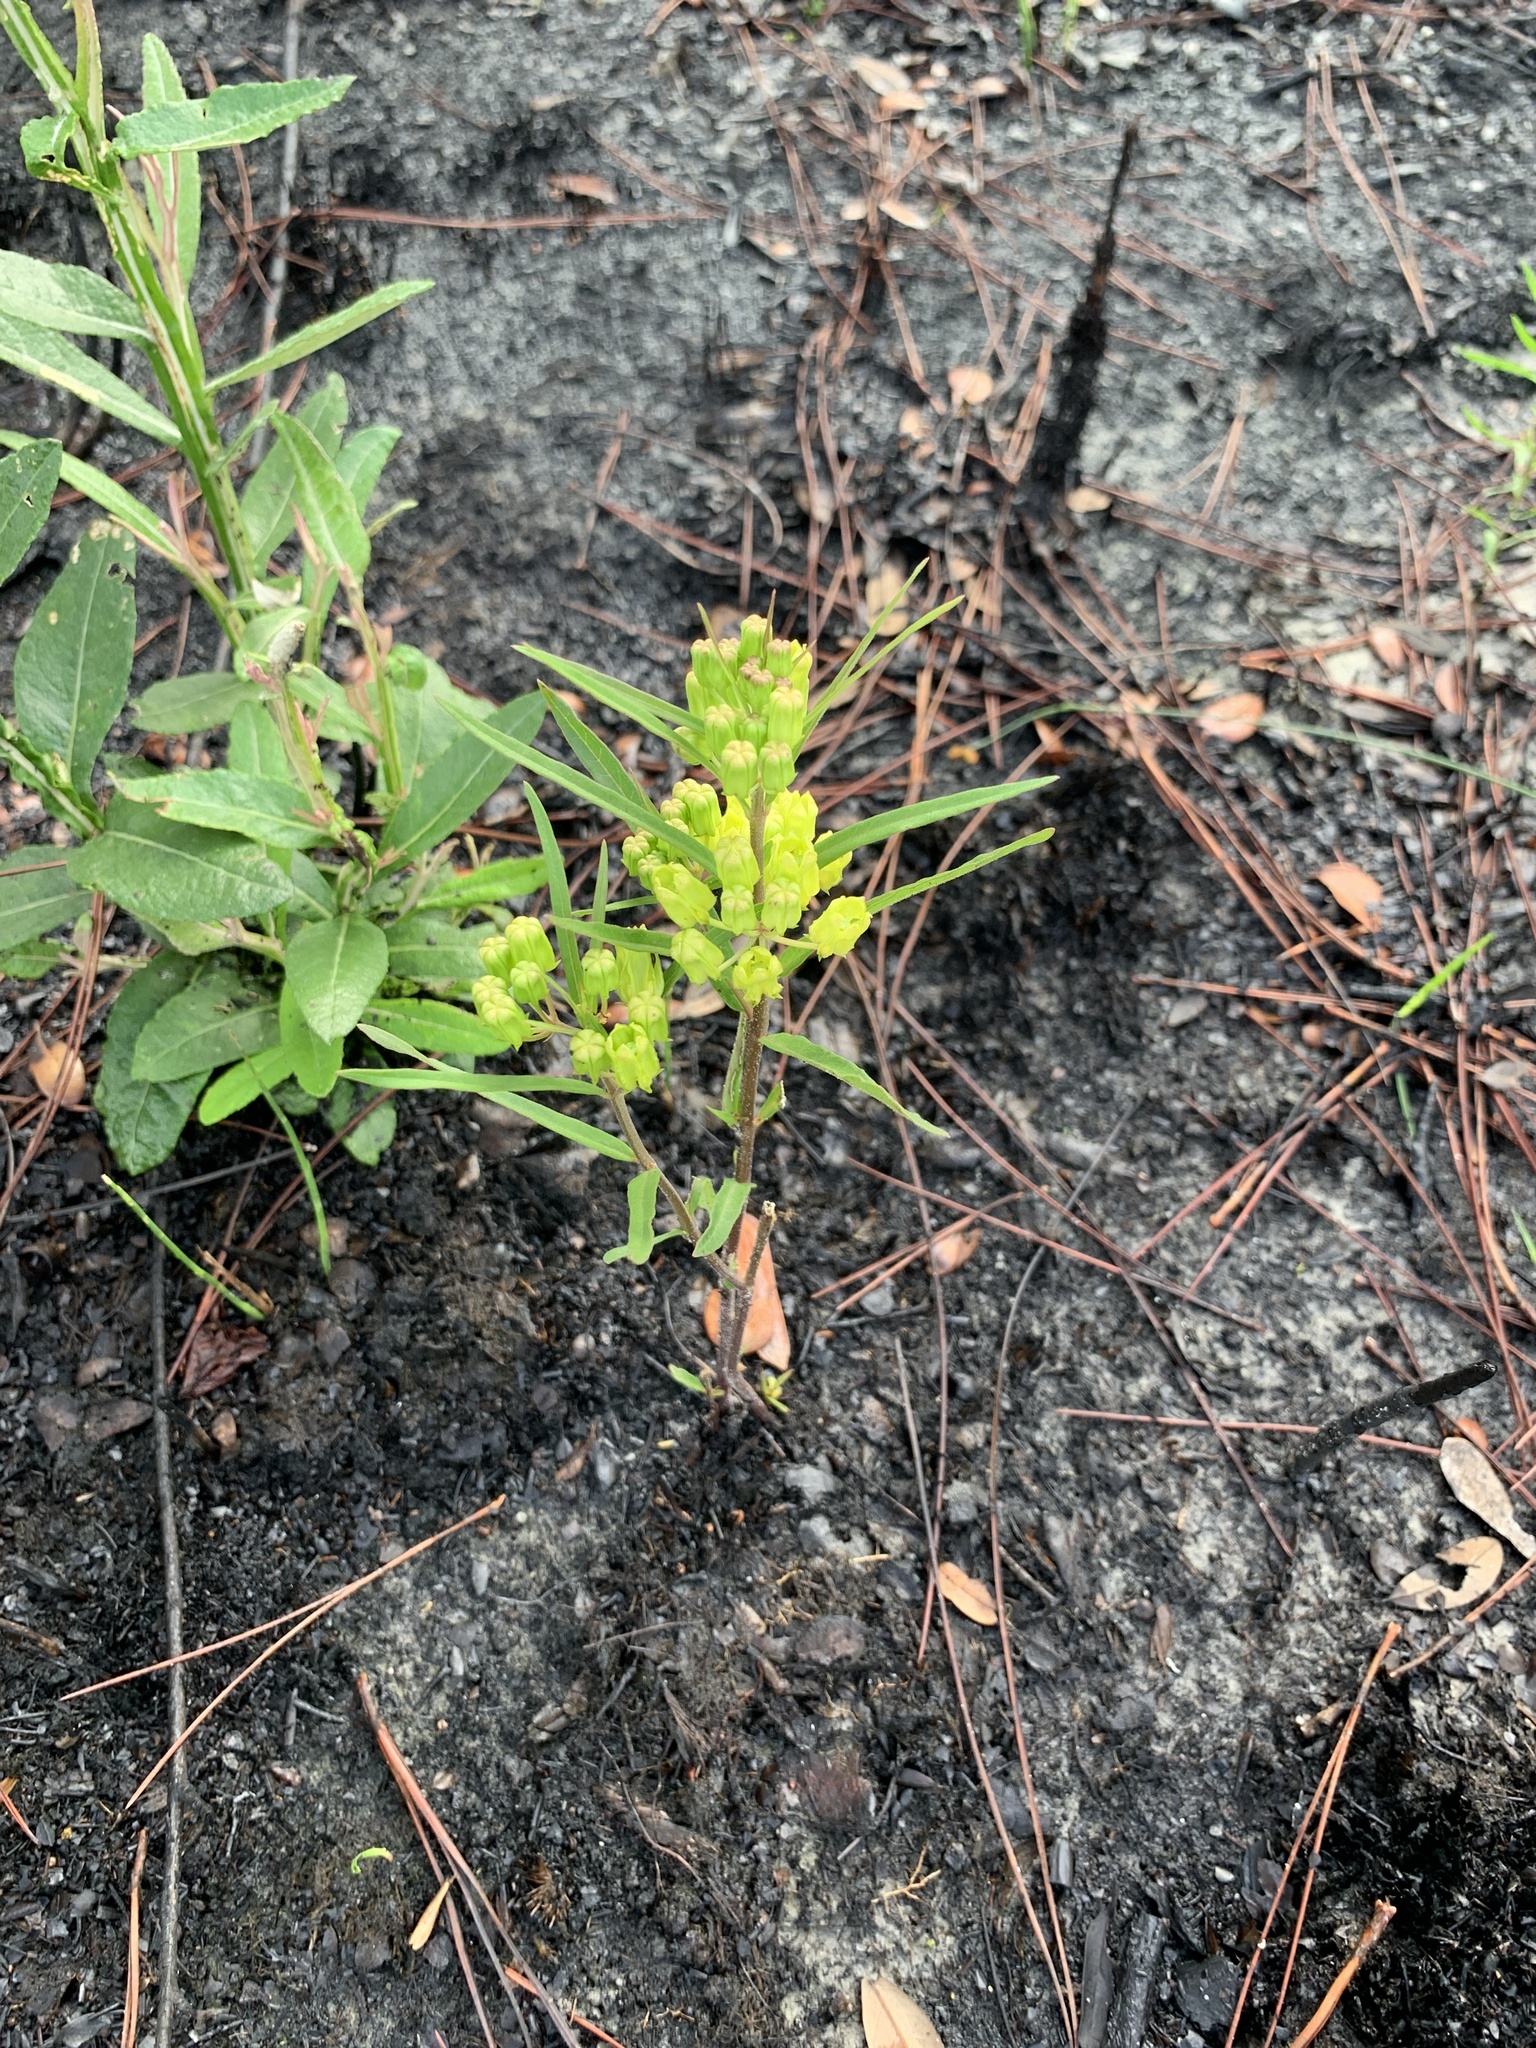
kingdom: Plantae
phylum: Tracheophyta
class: Magnoliopsida
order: Gentianales
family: Apocynaceae
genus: Asclepias
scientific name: Asclepias pedicellata
